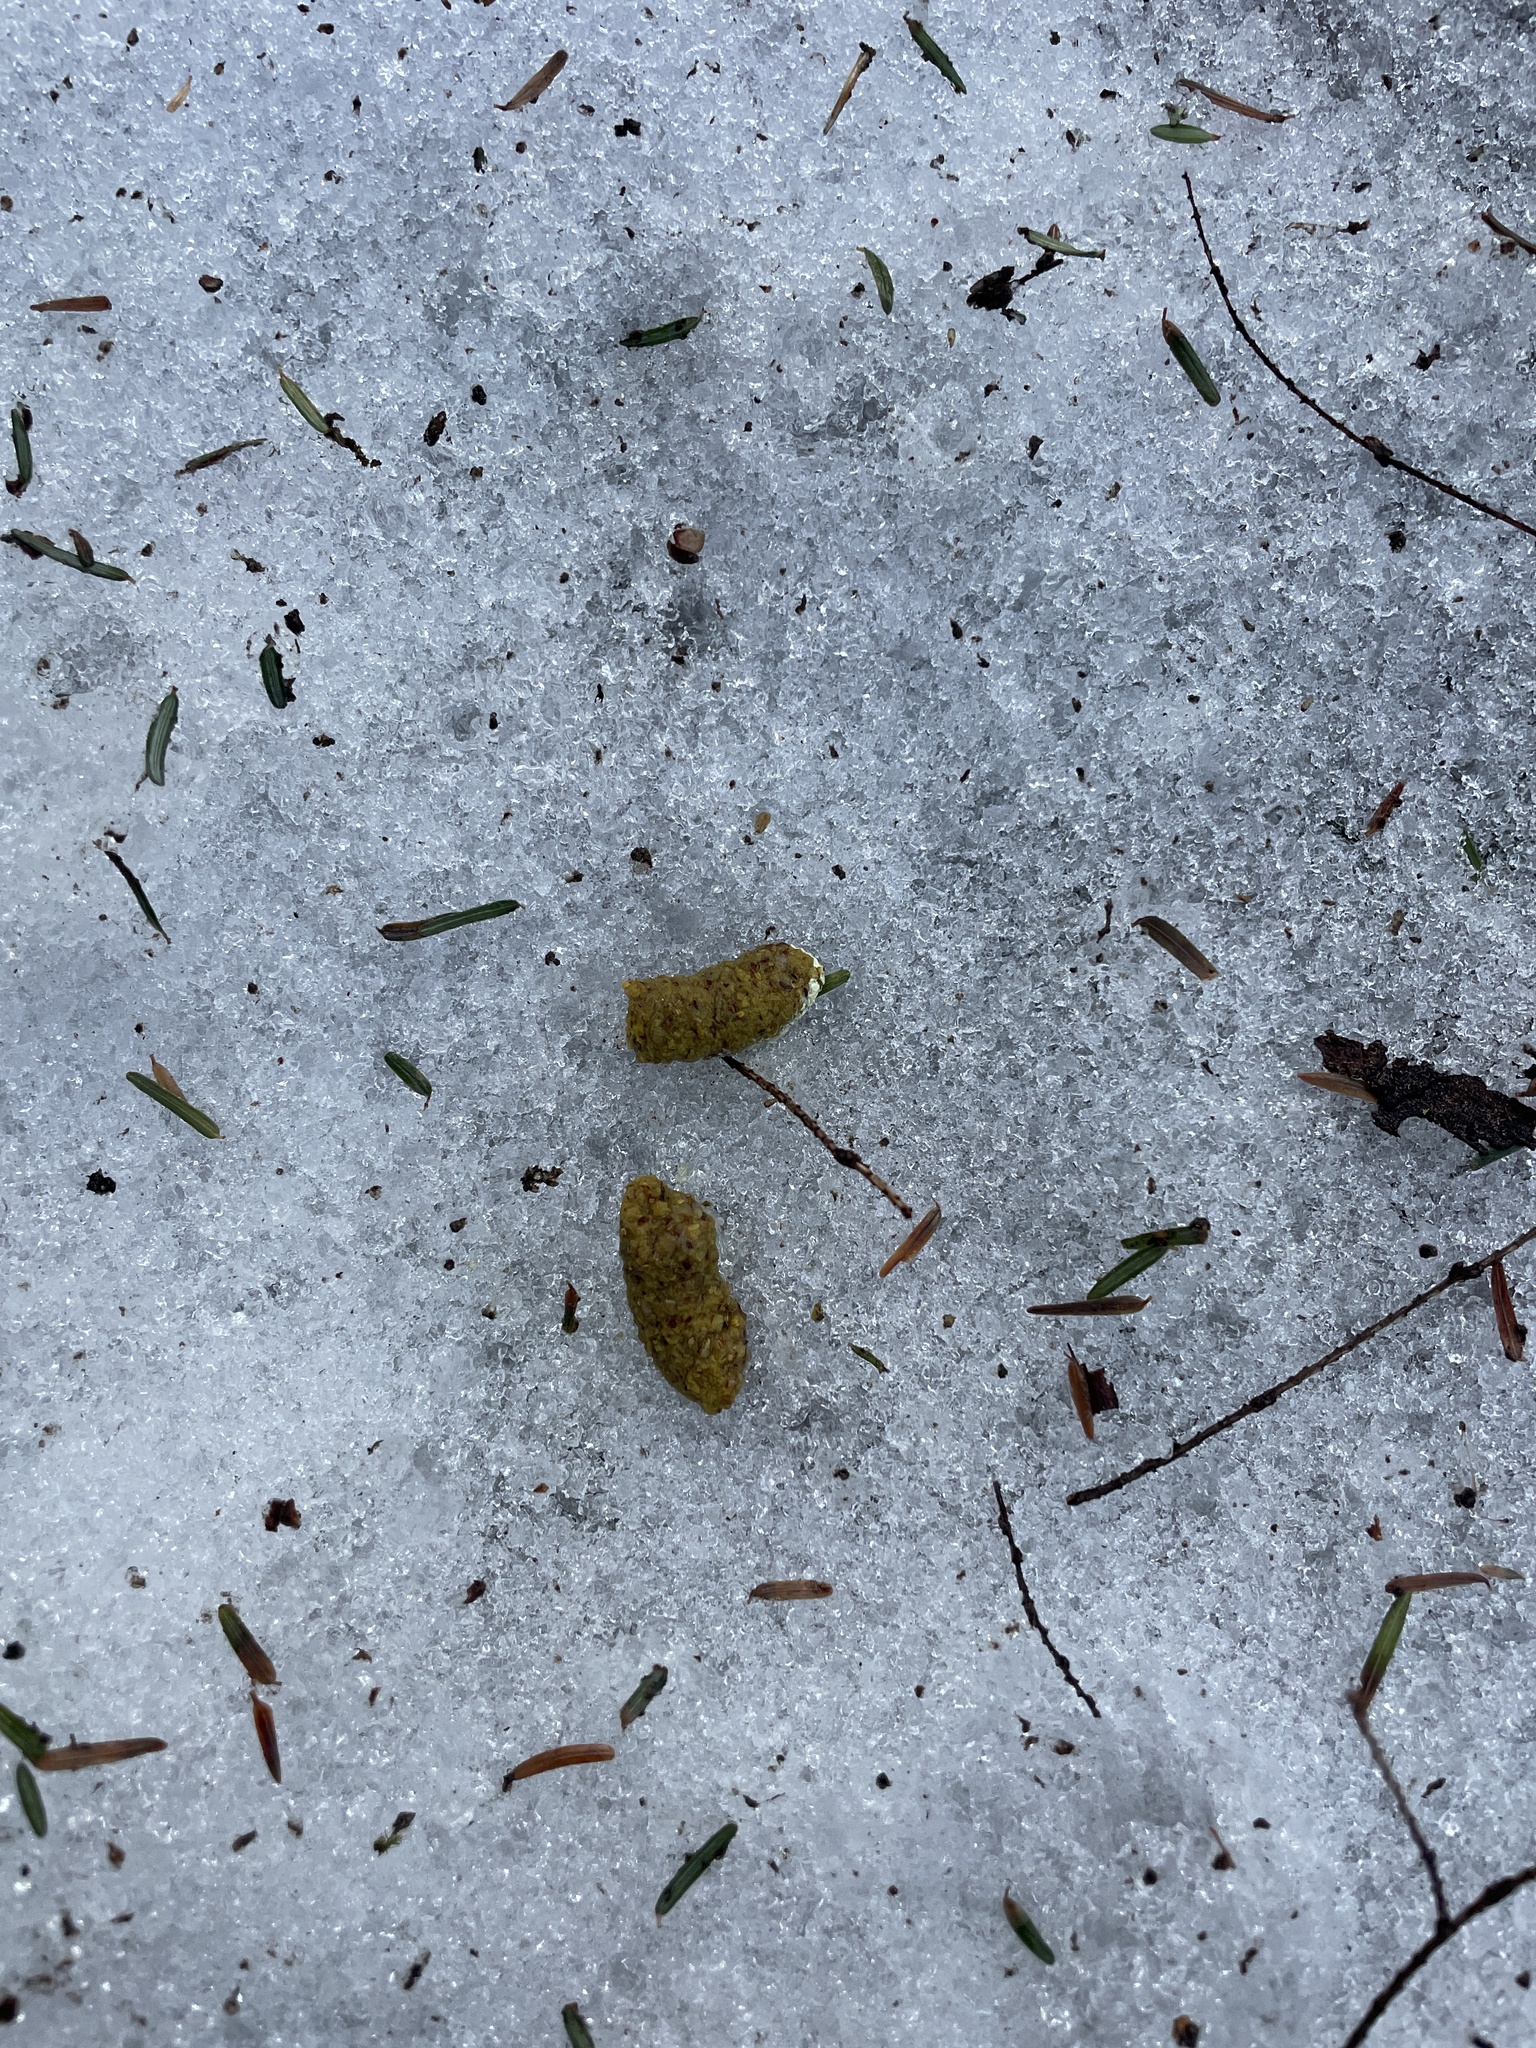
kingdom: Animalia
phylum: Chordata
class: Aves
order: Galliformes
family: Phasianidae
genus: Bonasa
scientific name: Bonasa umbellus
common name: Ruffed grouse
